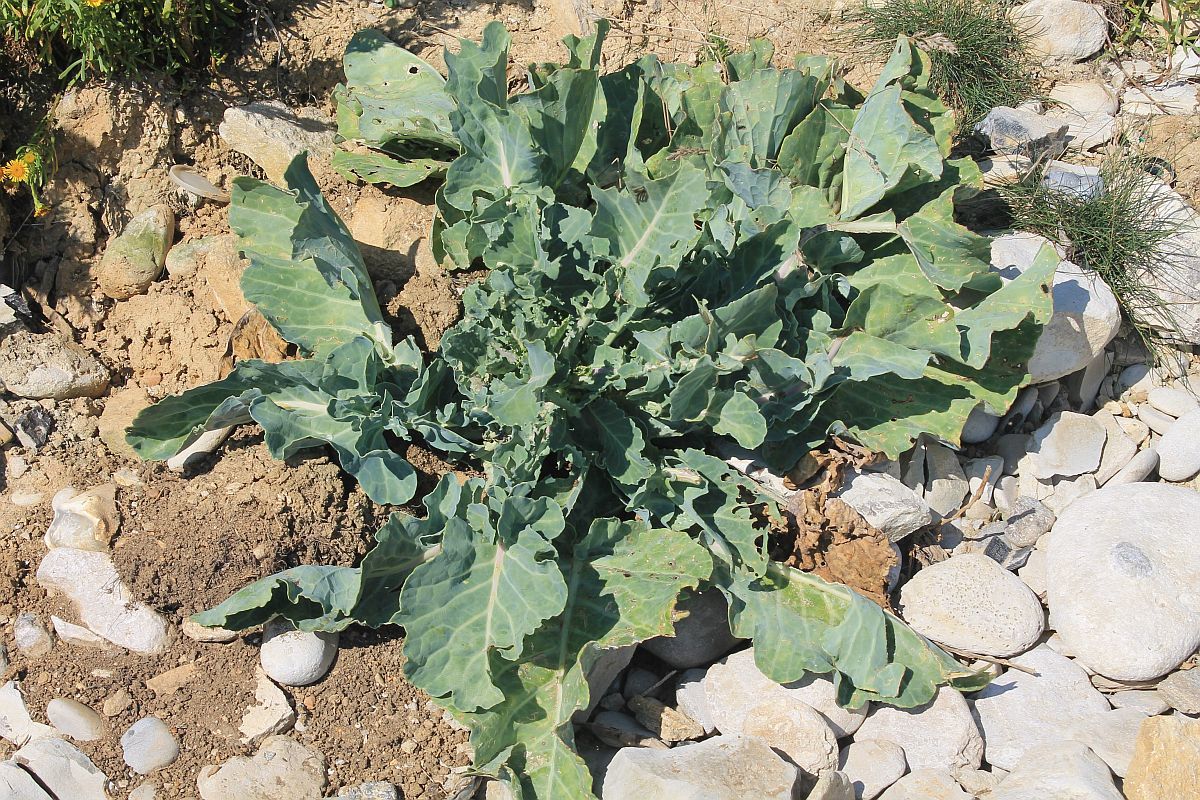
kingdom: Plantae
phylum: Tracheophyta
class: Magnoliopsida
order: Brassicales
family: Brassicaceae
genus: Crambe
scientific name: Crambe maritima
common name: Sea-kale
